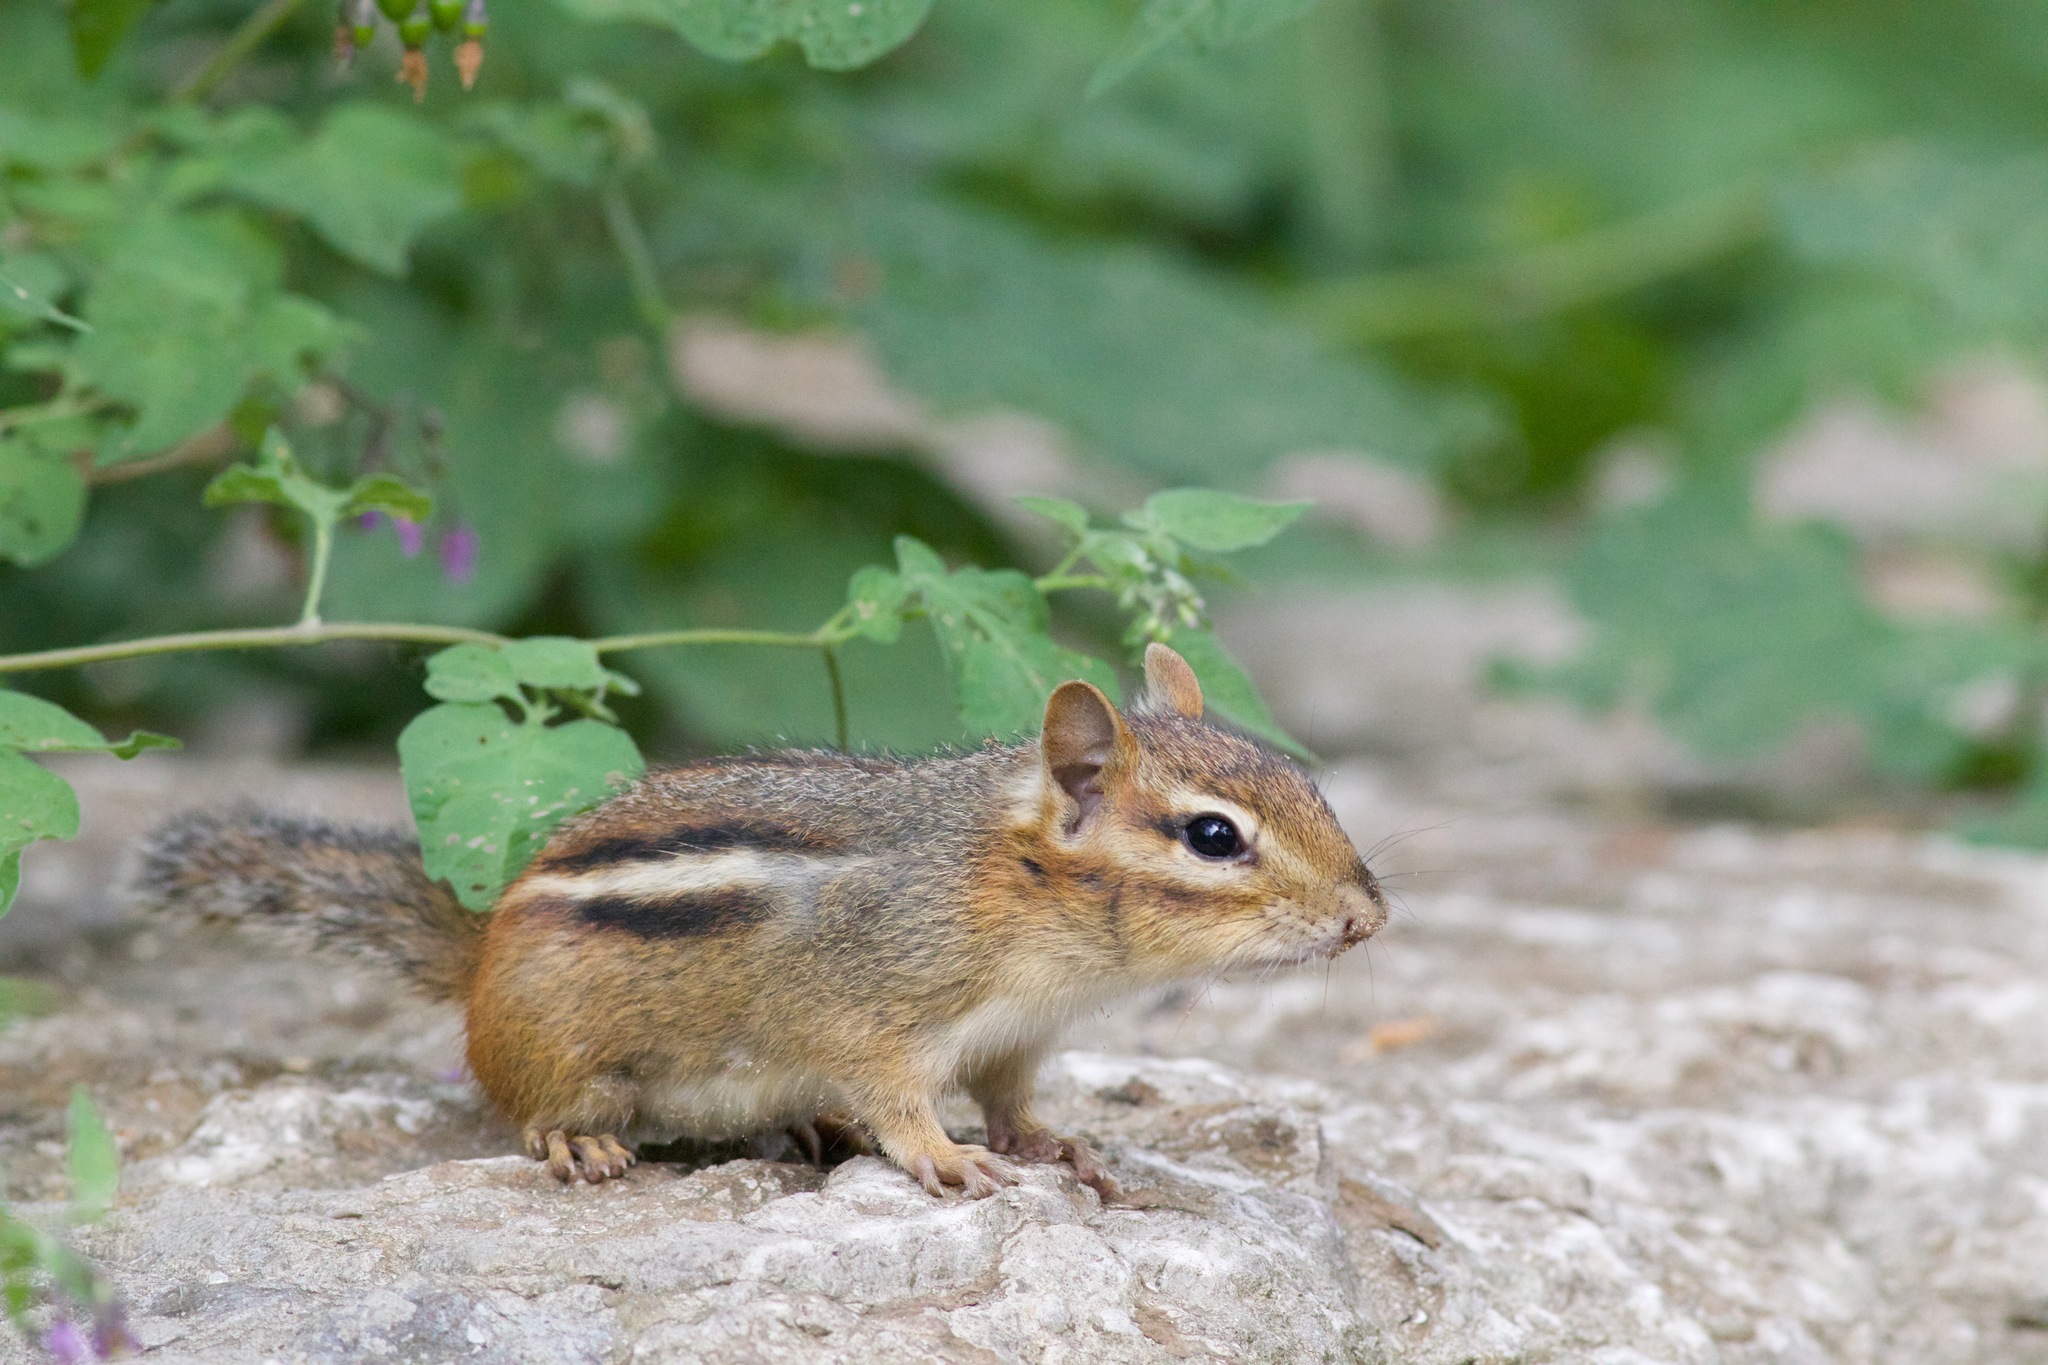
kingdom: Animalia
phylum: Chordata
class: Mammalia
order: Rodentia
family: Sciuridae
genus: Tamias
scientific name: Tamias striatus
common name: Eastern chipmunk
